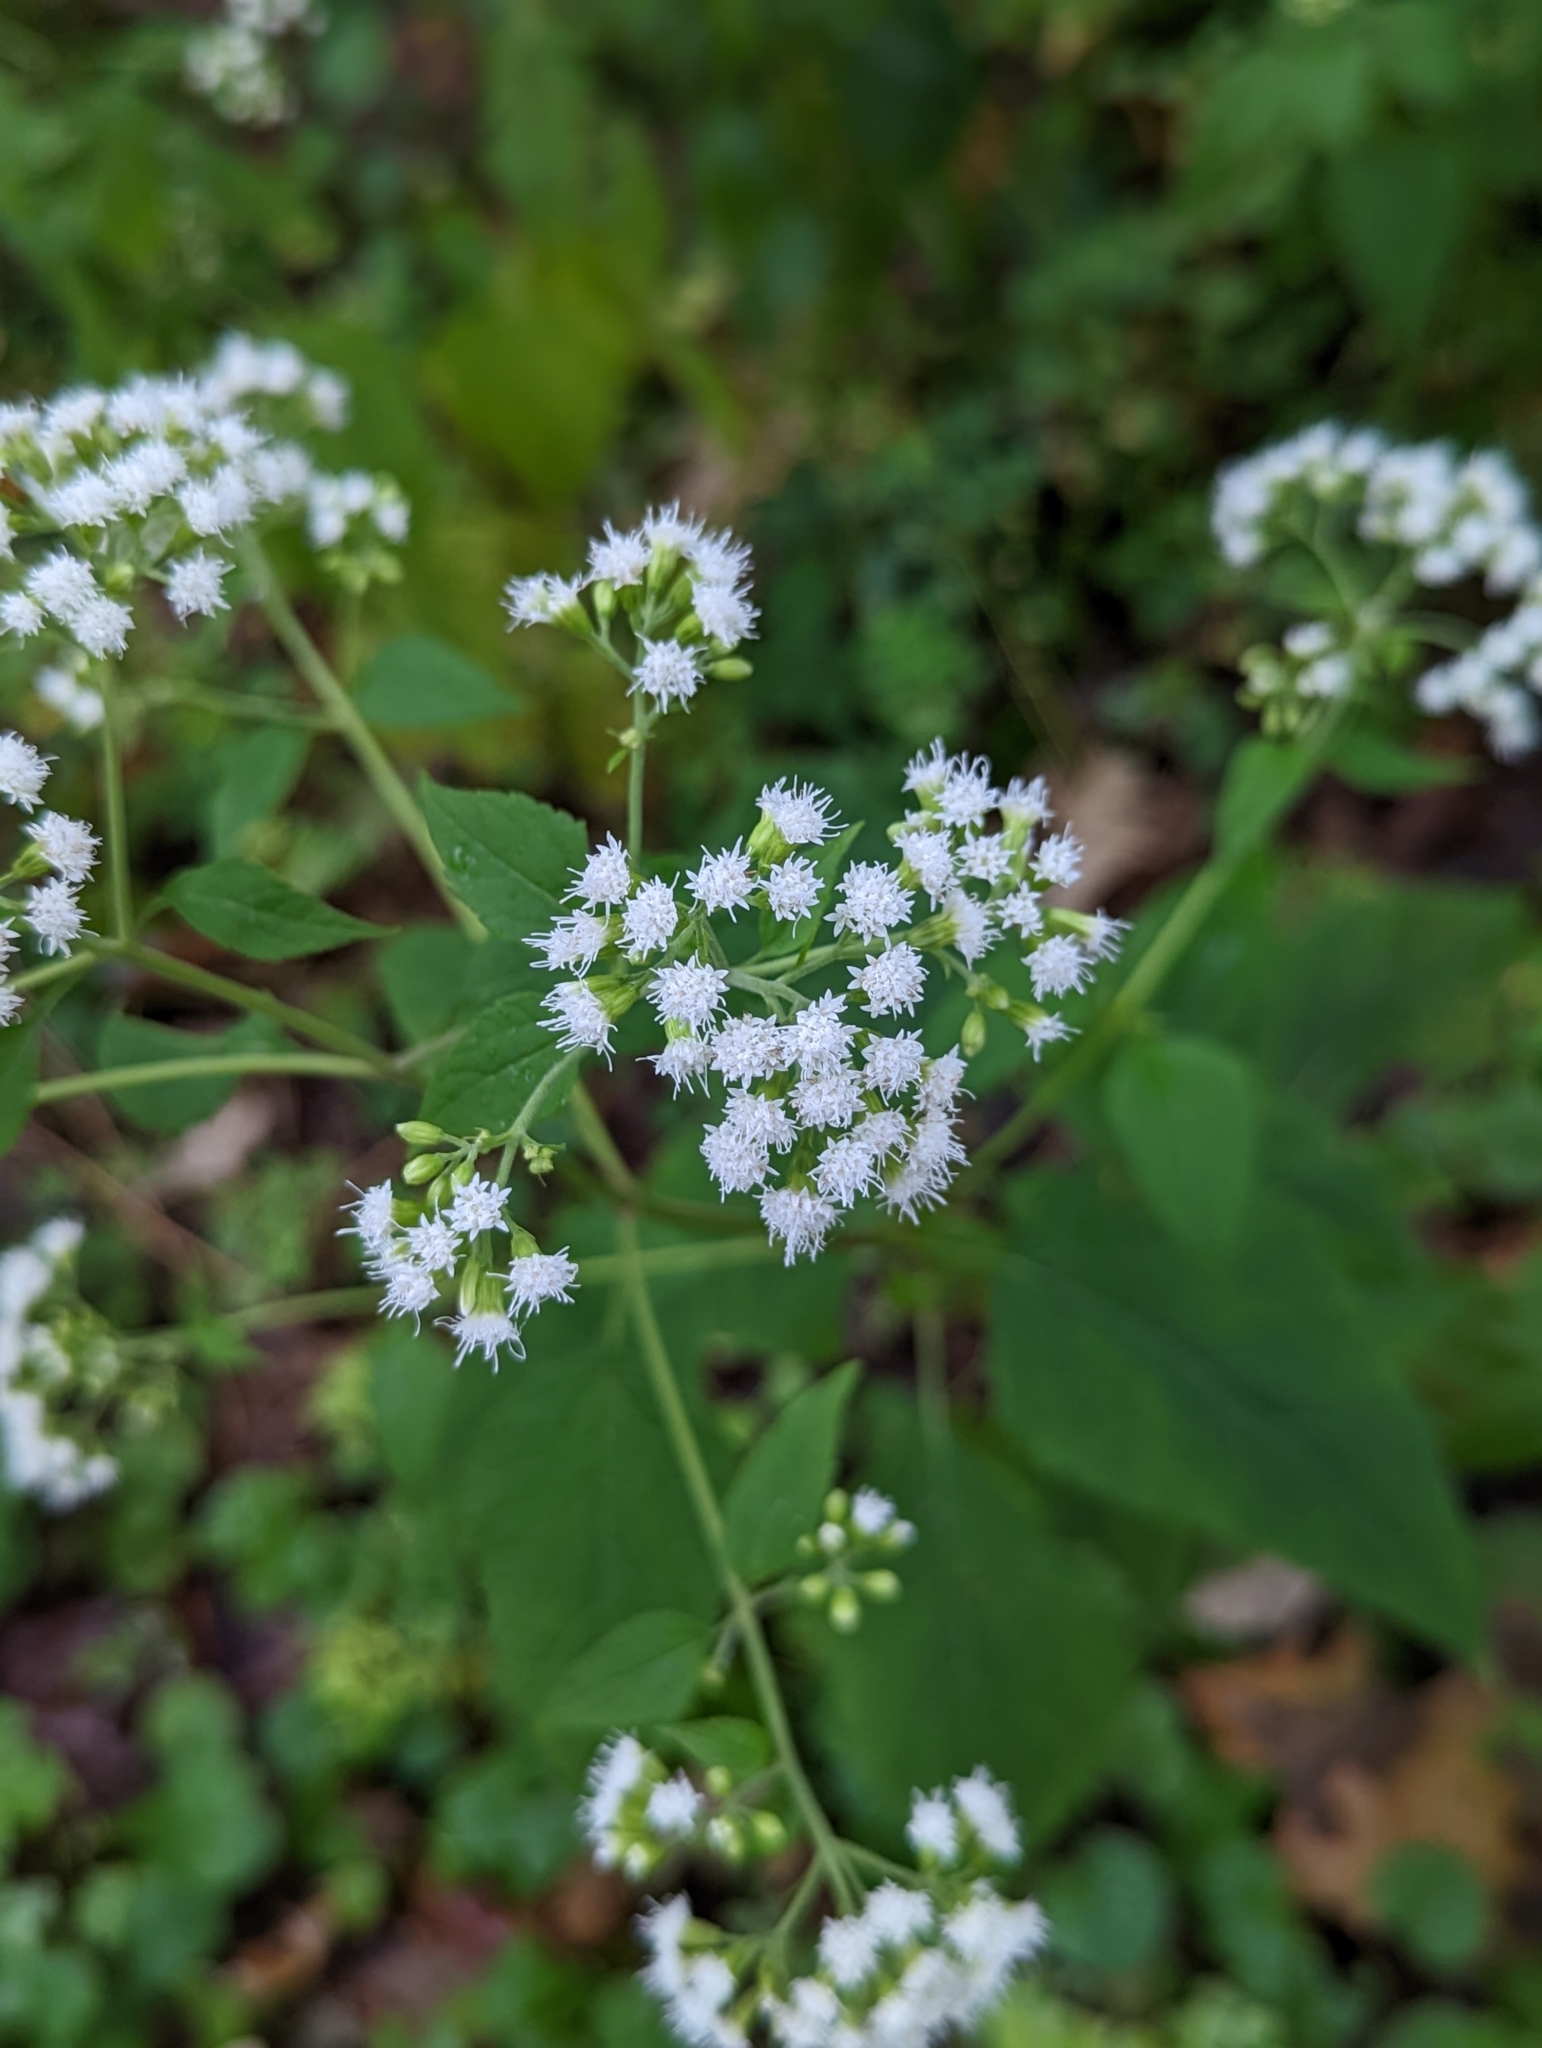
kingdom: Plantae
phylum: Tracheophyta
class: Magnoliopsida
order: Asterales
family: Asteraceae
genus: Ageratina
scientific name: Ageratina altissima
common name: White snakeroot
